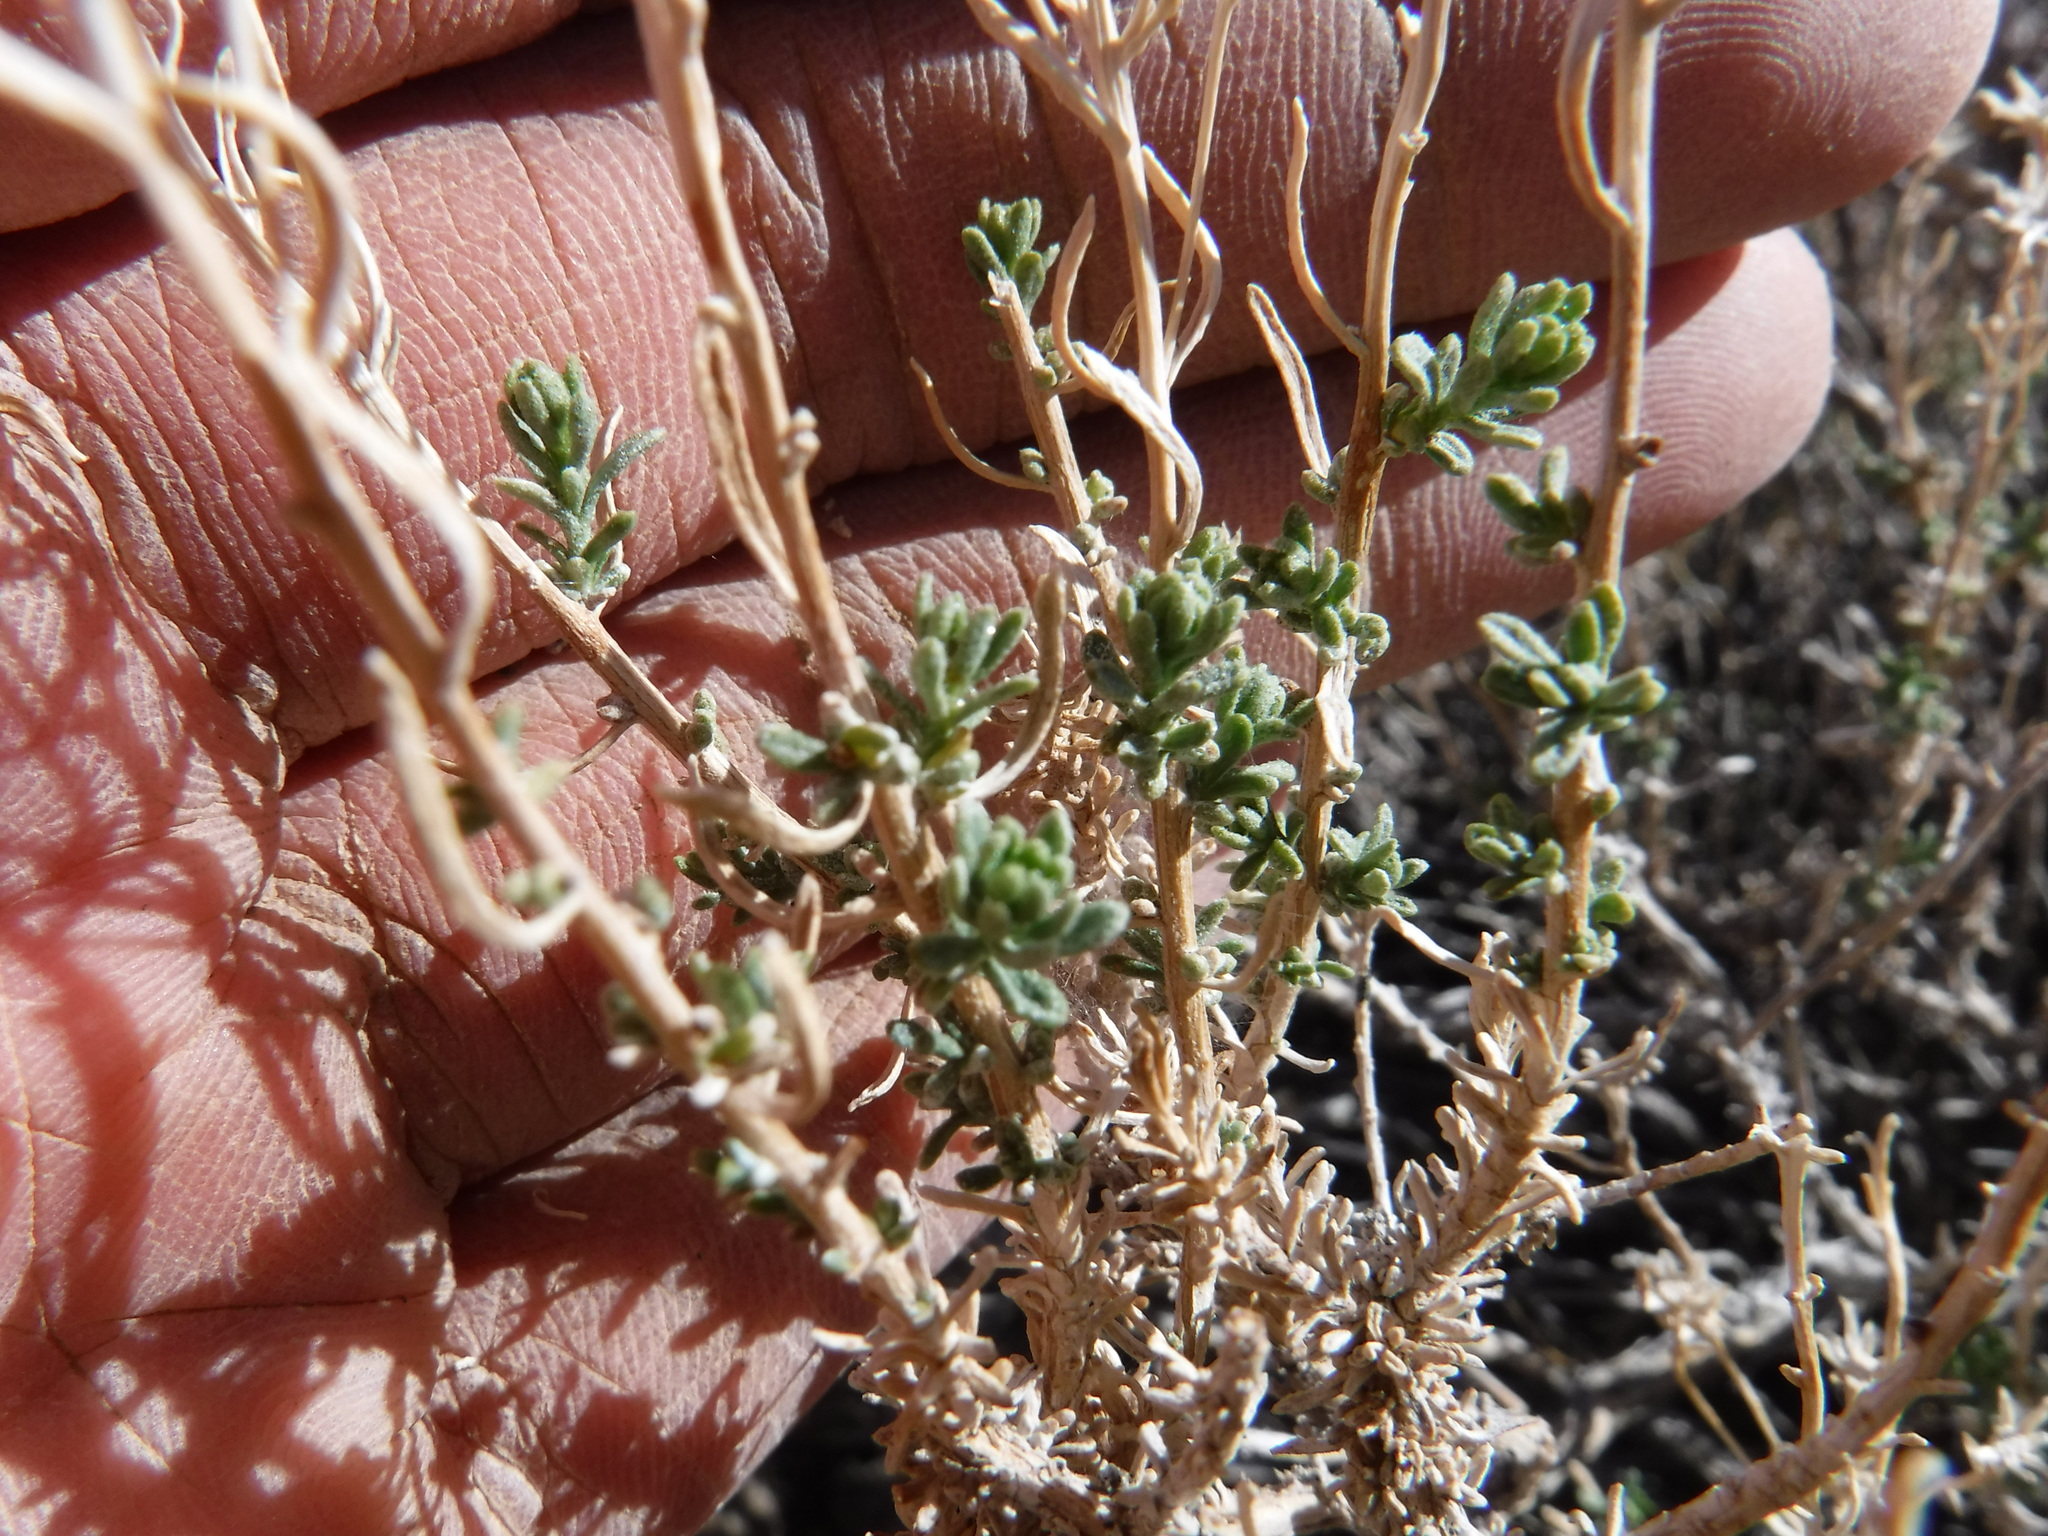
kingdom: Plantae
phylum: Tracheophyta
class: Magnoliopsida
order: Asterales
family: Asteraceae
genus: Ericameria
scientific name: Ericameria cooperi
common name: Cooper's goldenbush
